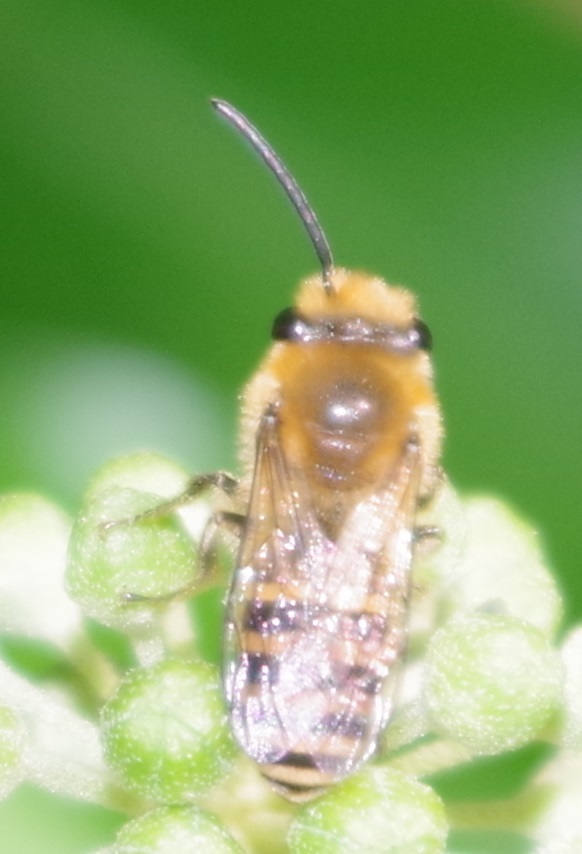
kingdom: Animalia
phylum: Arthropoda
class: Insecta
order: Hymenoptera
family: Colletidae
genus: Colletes
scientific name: Colletes hederae
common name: Ivy bee
